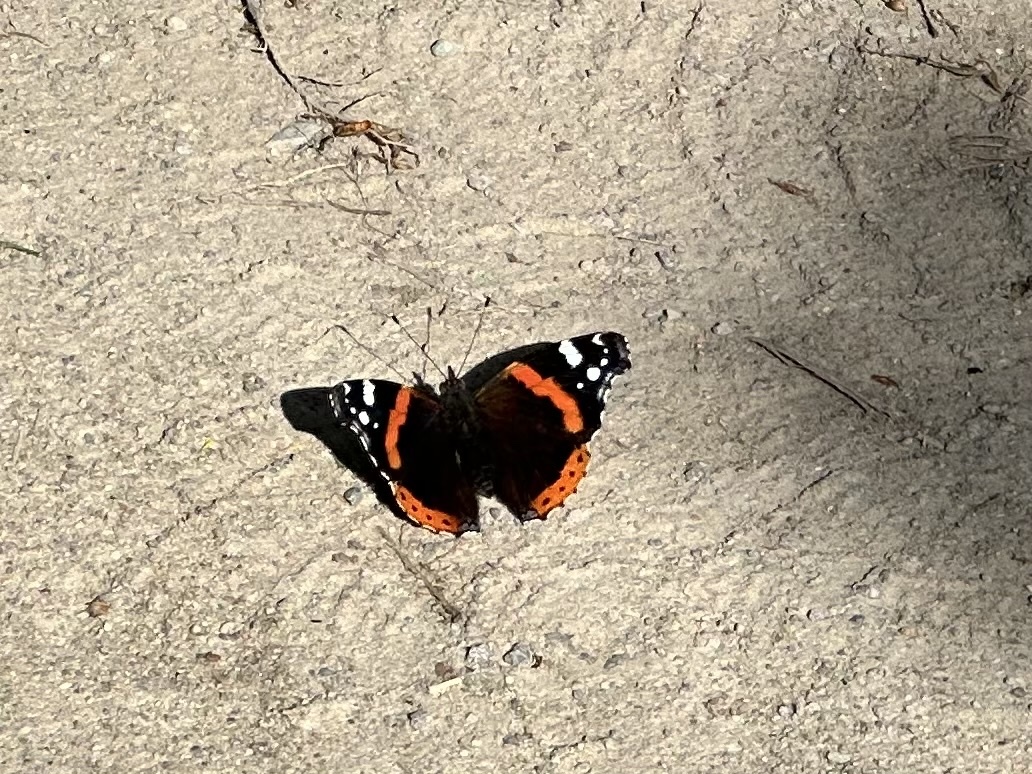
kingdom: Animalia
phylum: Arthropoda
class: Insecta
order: Lepidoptera
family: Nymphalidae
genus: Vanessa
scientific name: Vanessa atalanta
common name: Red admiral
